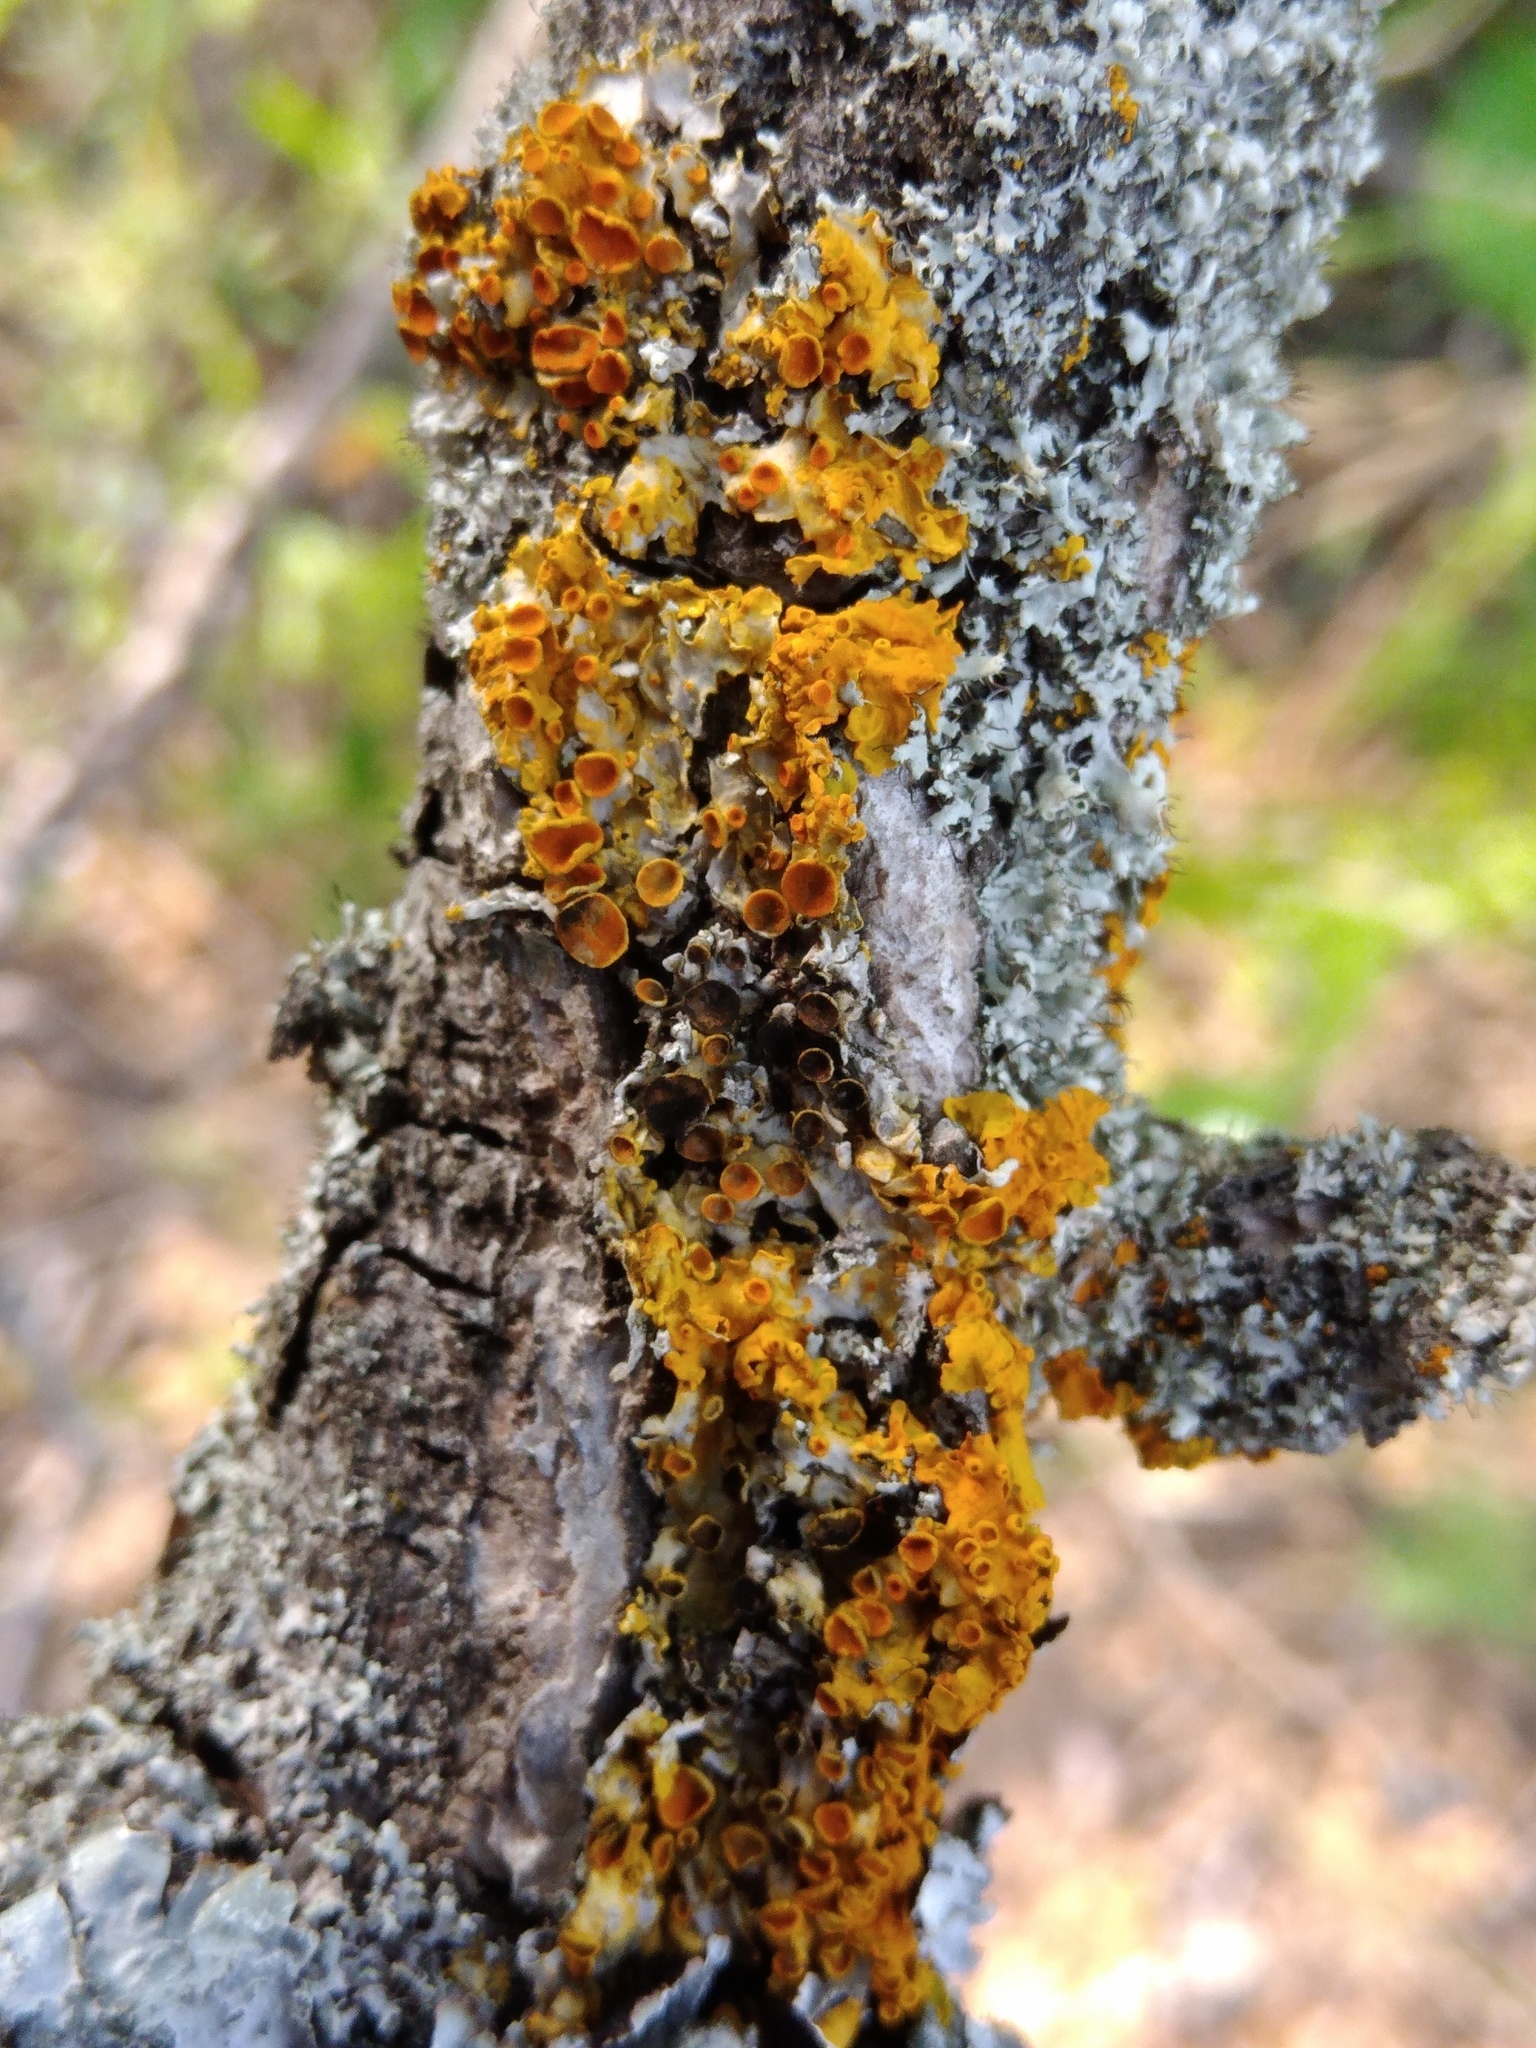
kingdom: Fungi
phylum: Ascomycota
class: Dothideomycetes
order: Mycosphaerellales
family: Teratosphaeriaceae
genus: Xanthoriicola
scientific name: Xanthoriicola physciae
